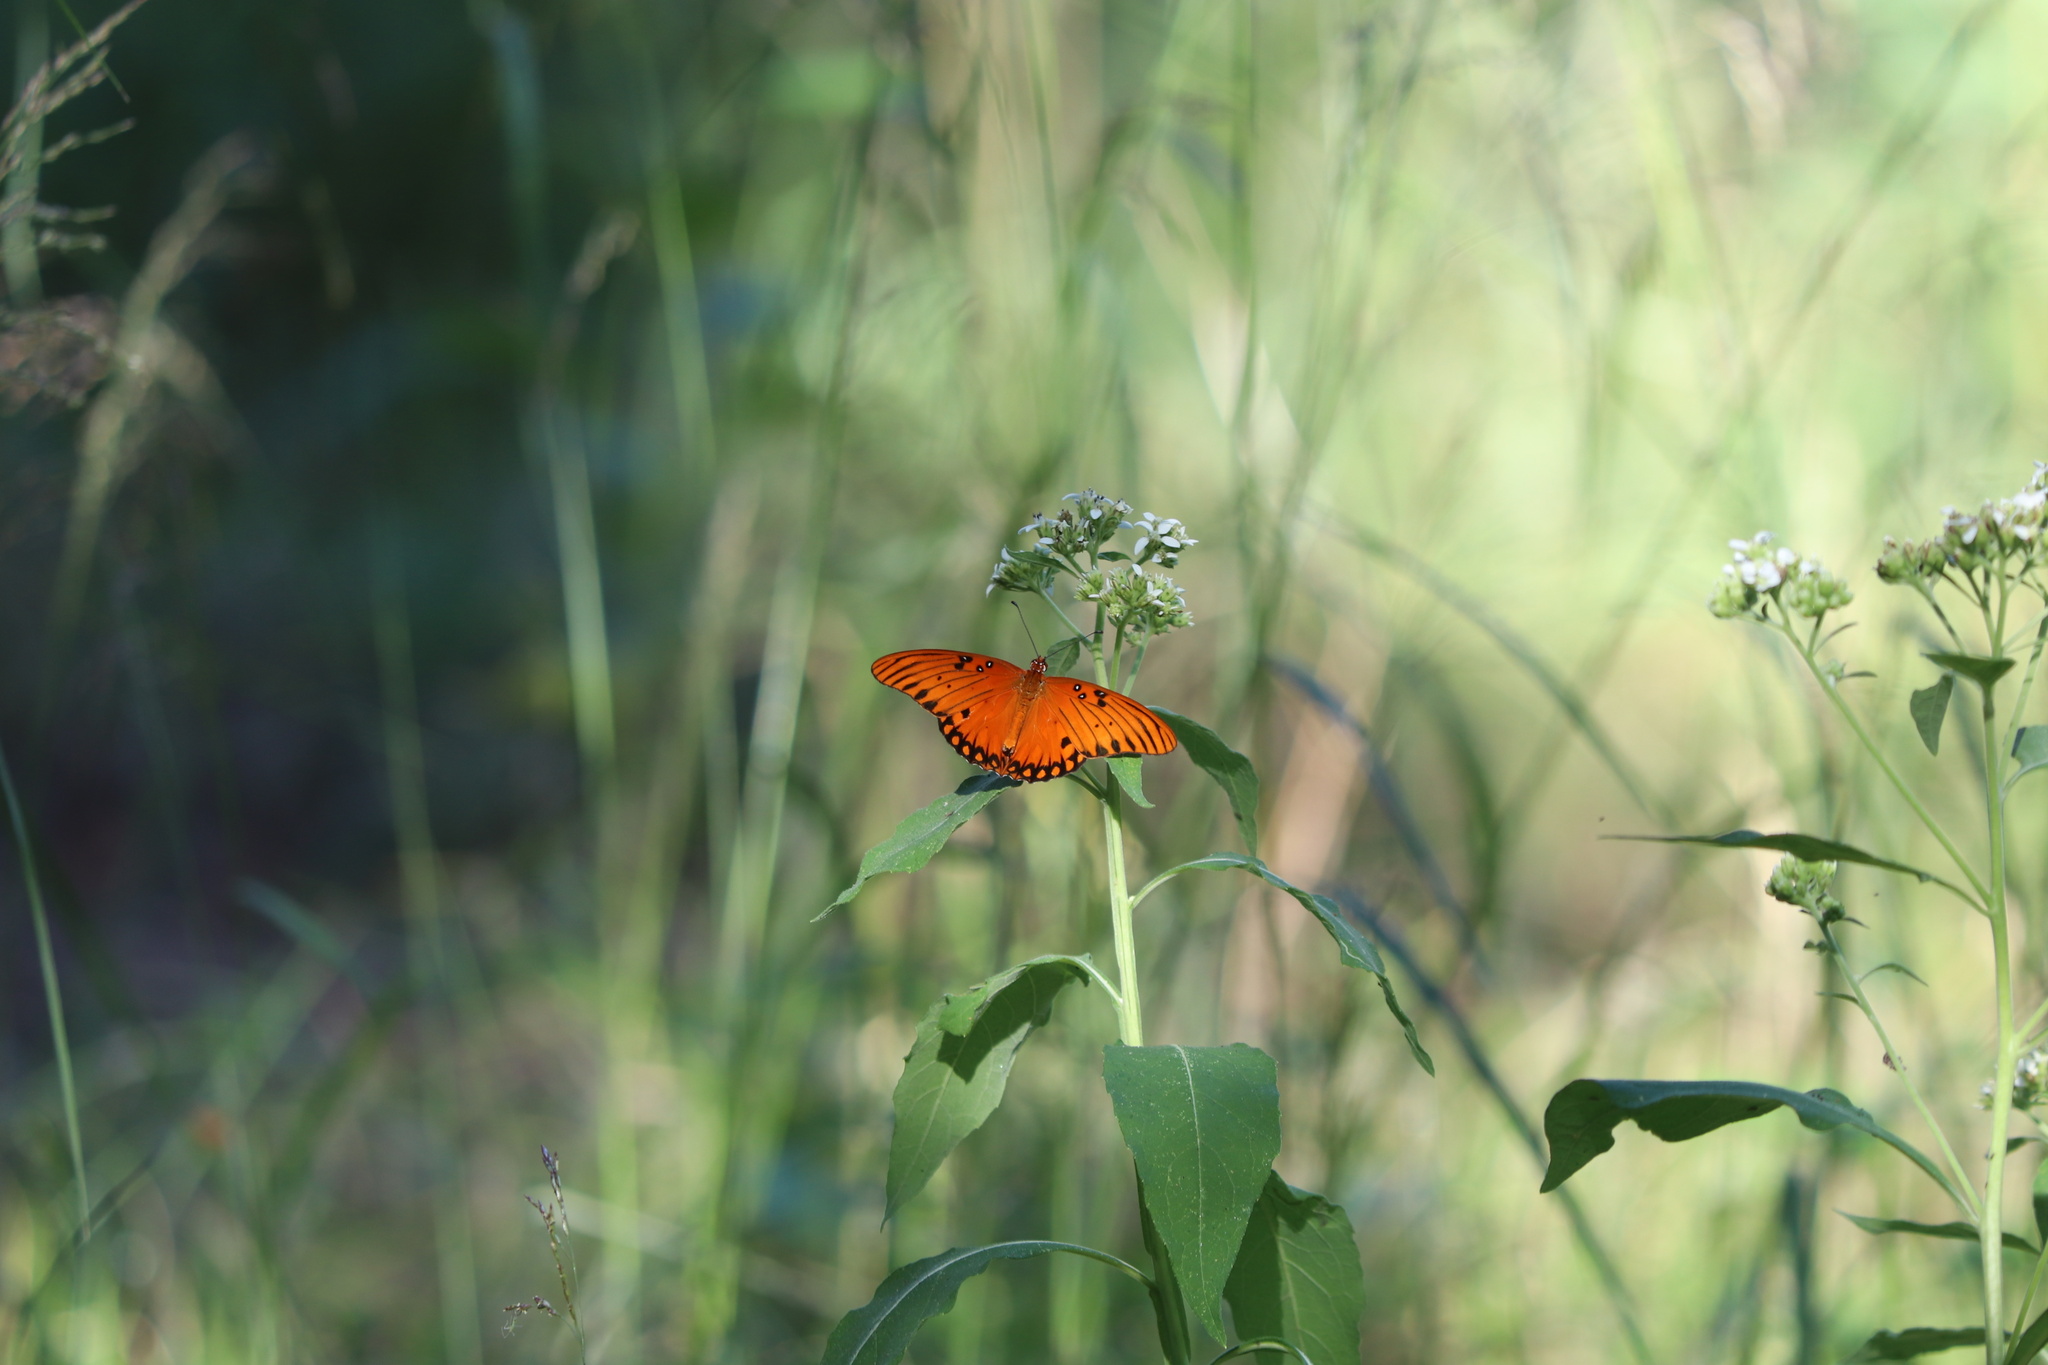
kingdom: Animalia
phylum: Arthropoda
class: Insecta
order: Lepidoptera
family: Nymphalidae
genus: Dione
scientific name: Dione vanillae
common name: Gulf fritillary
